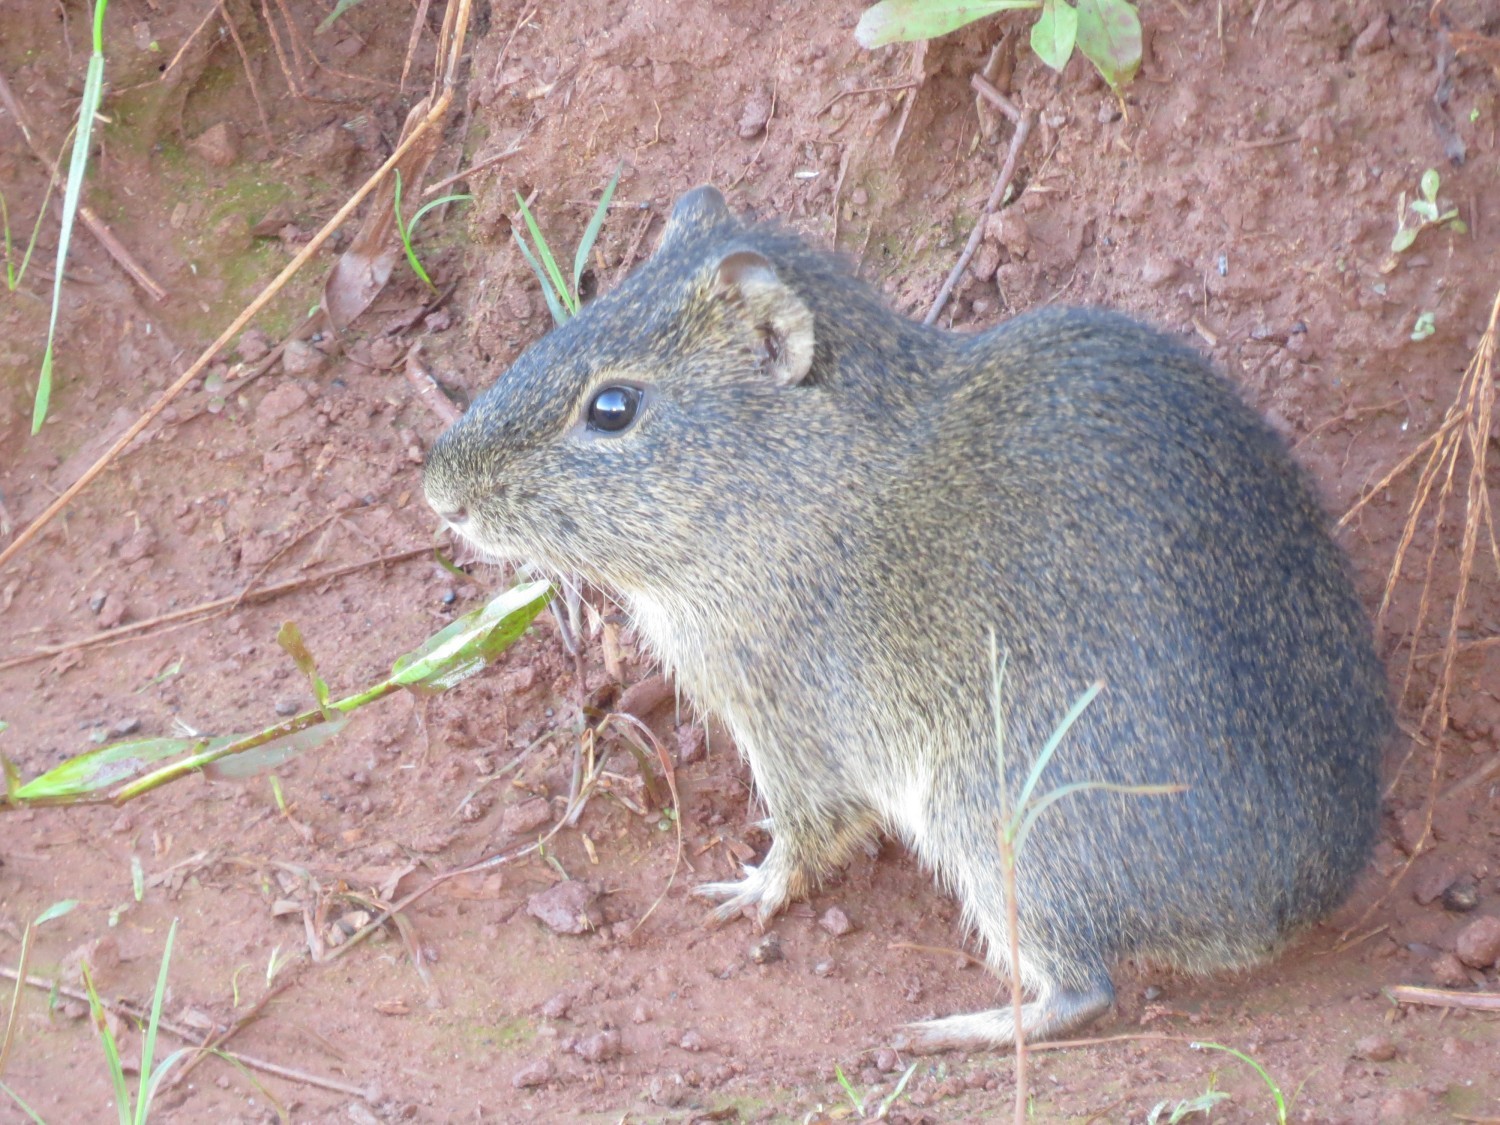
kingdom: Animalia
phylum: Chordata
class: Mammalia
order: Rodentia
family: Caviidae
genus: Cavia
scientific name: Cavia aperea
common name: Brazilian guinea pig
